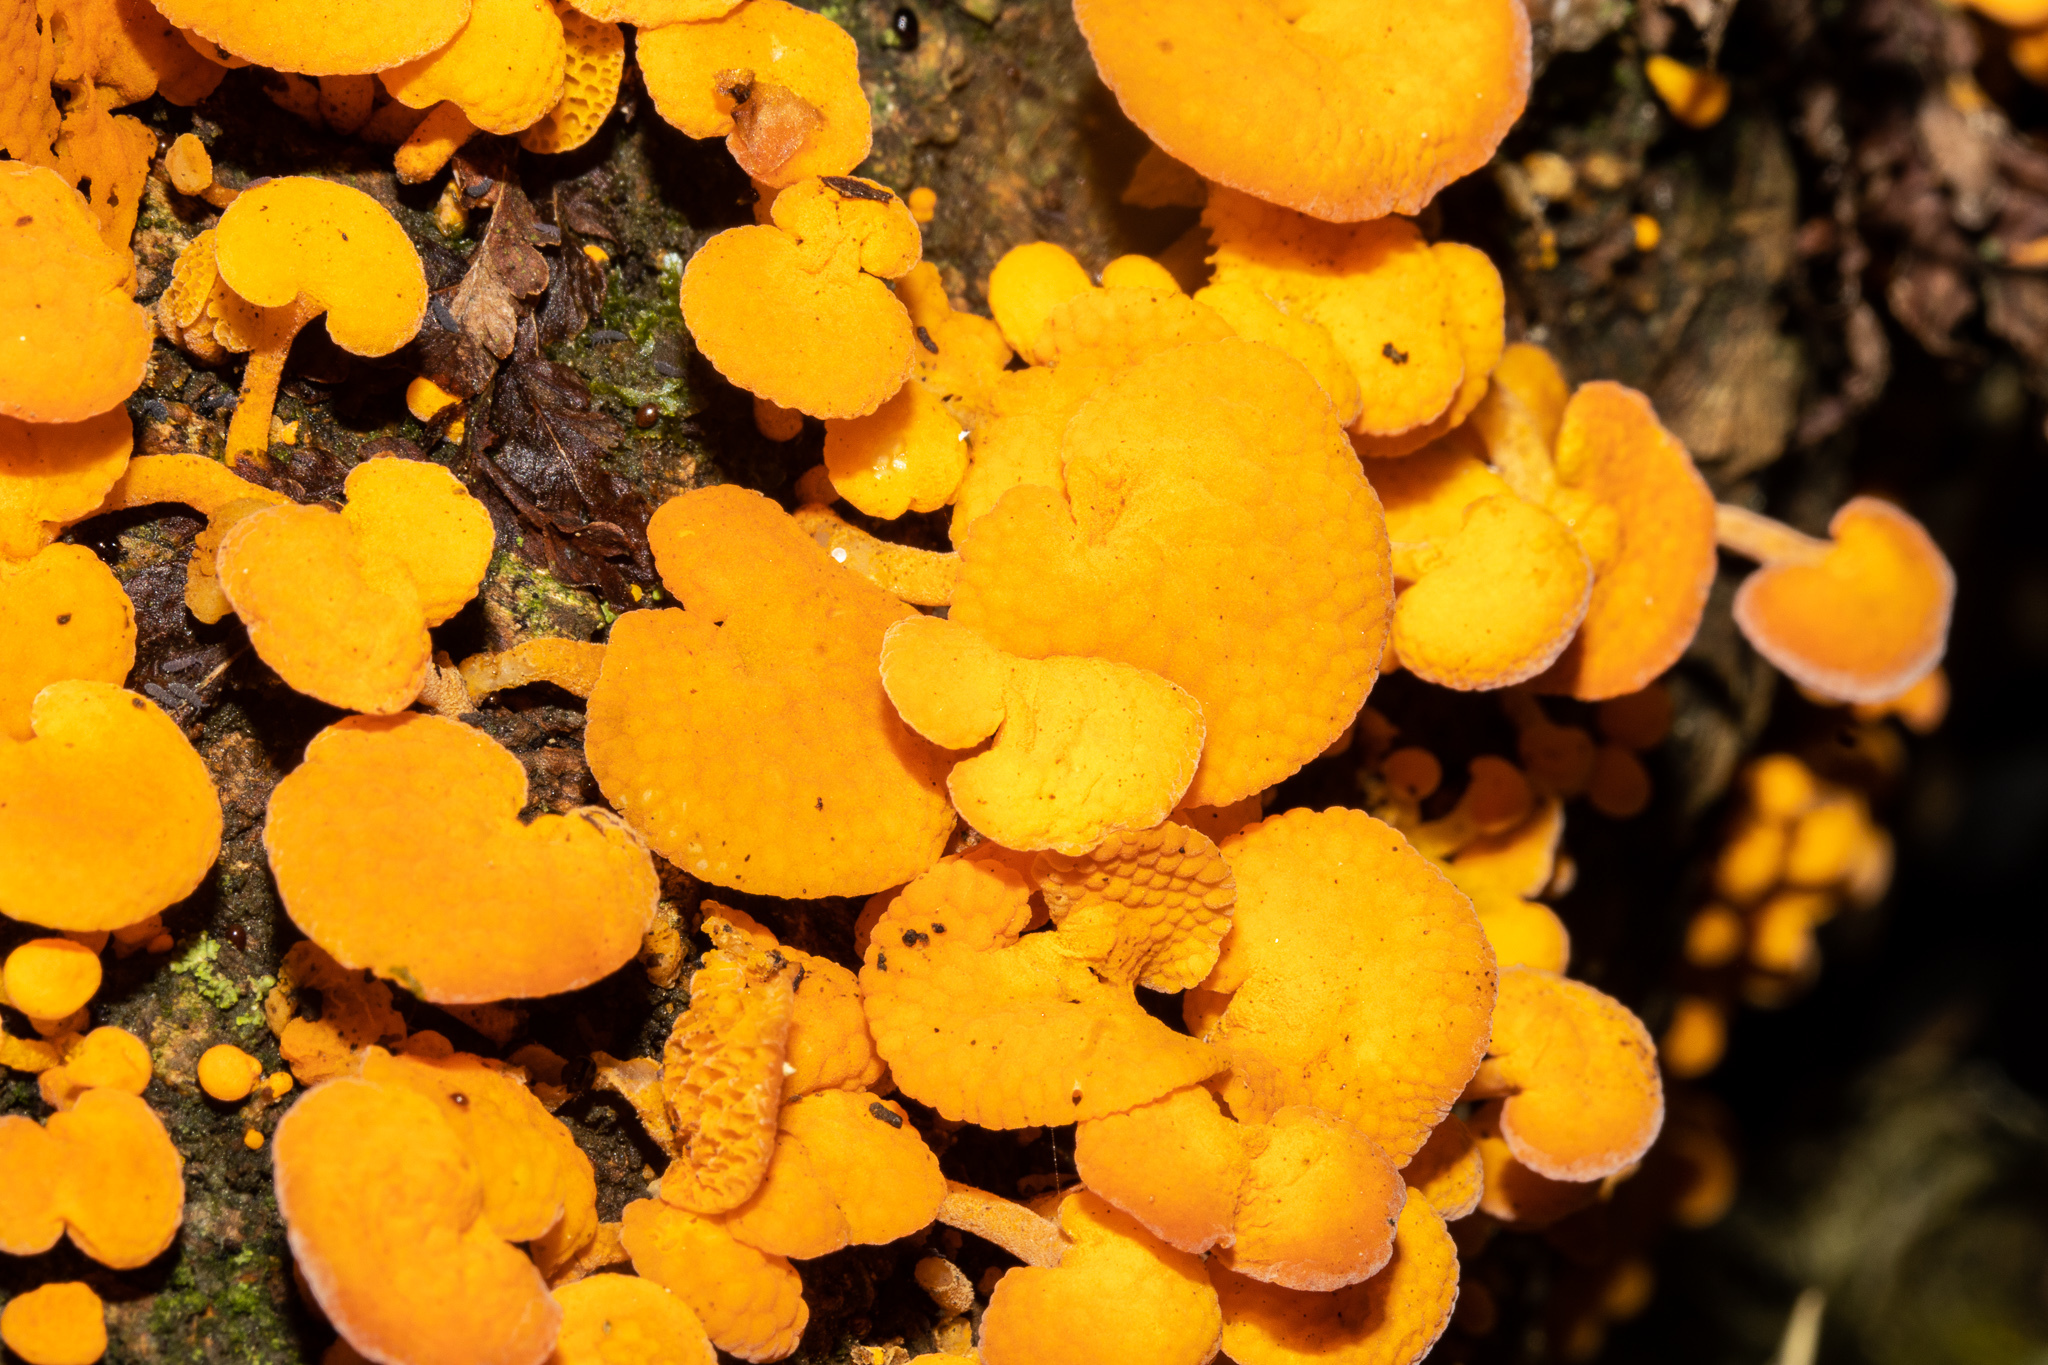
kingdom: Fungi
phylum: Basidiomycota
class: Agaricomycetes
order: Agaricales
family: Mycenaceae
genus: Favolaschia
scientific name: Favolaschia claudopus
